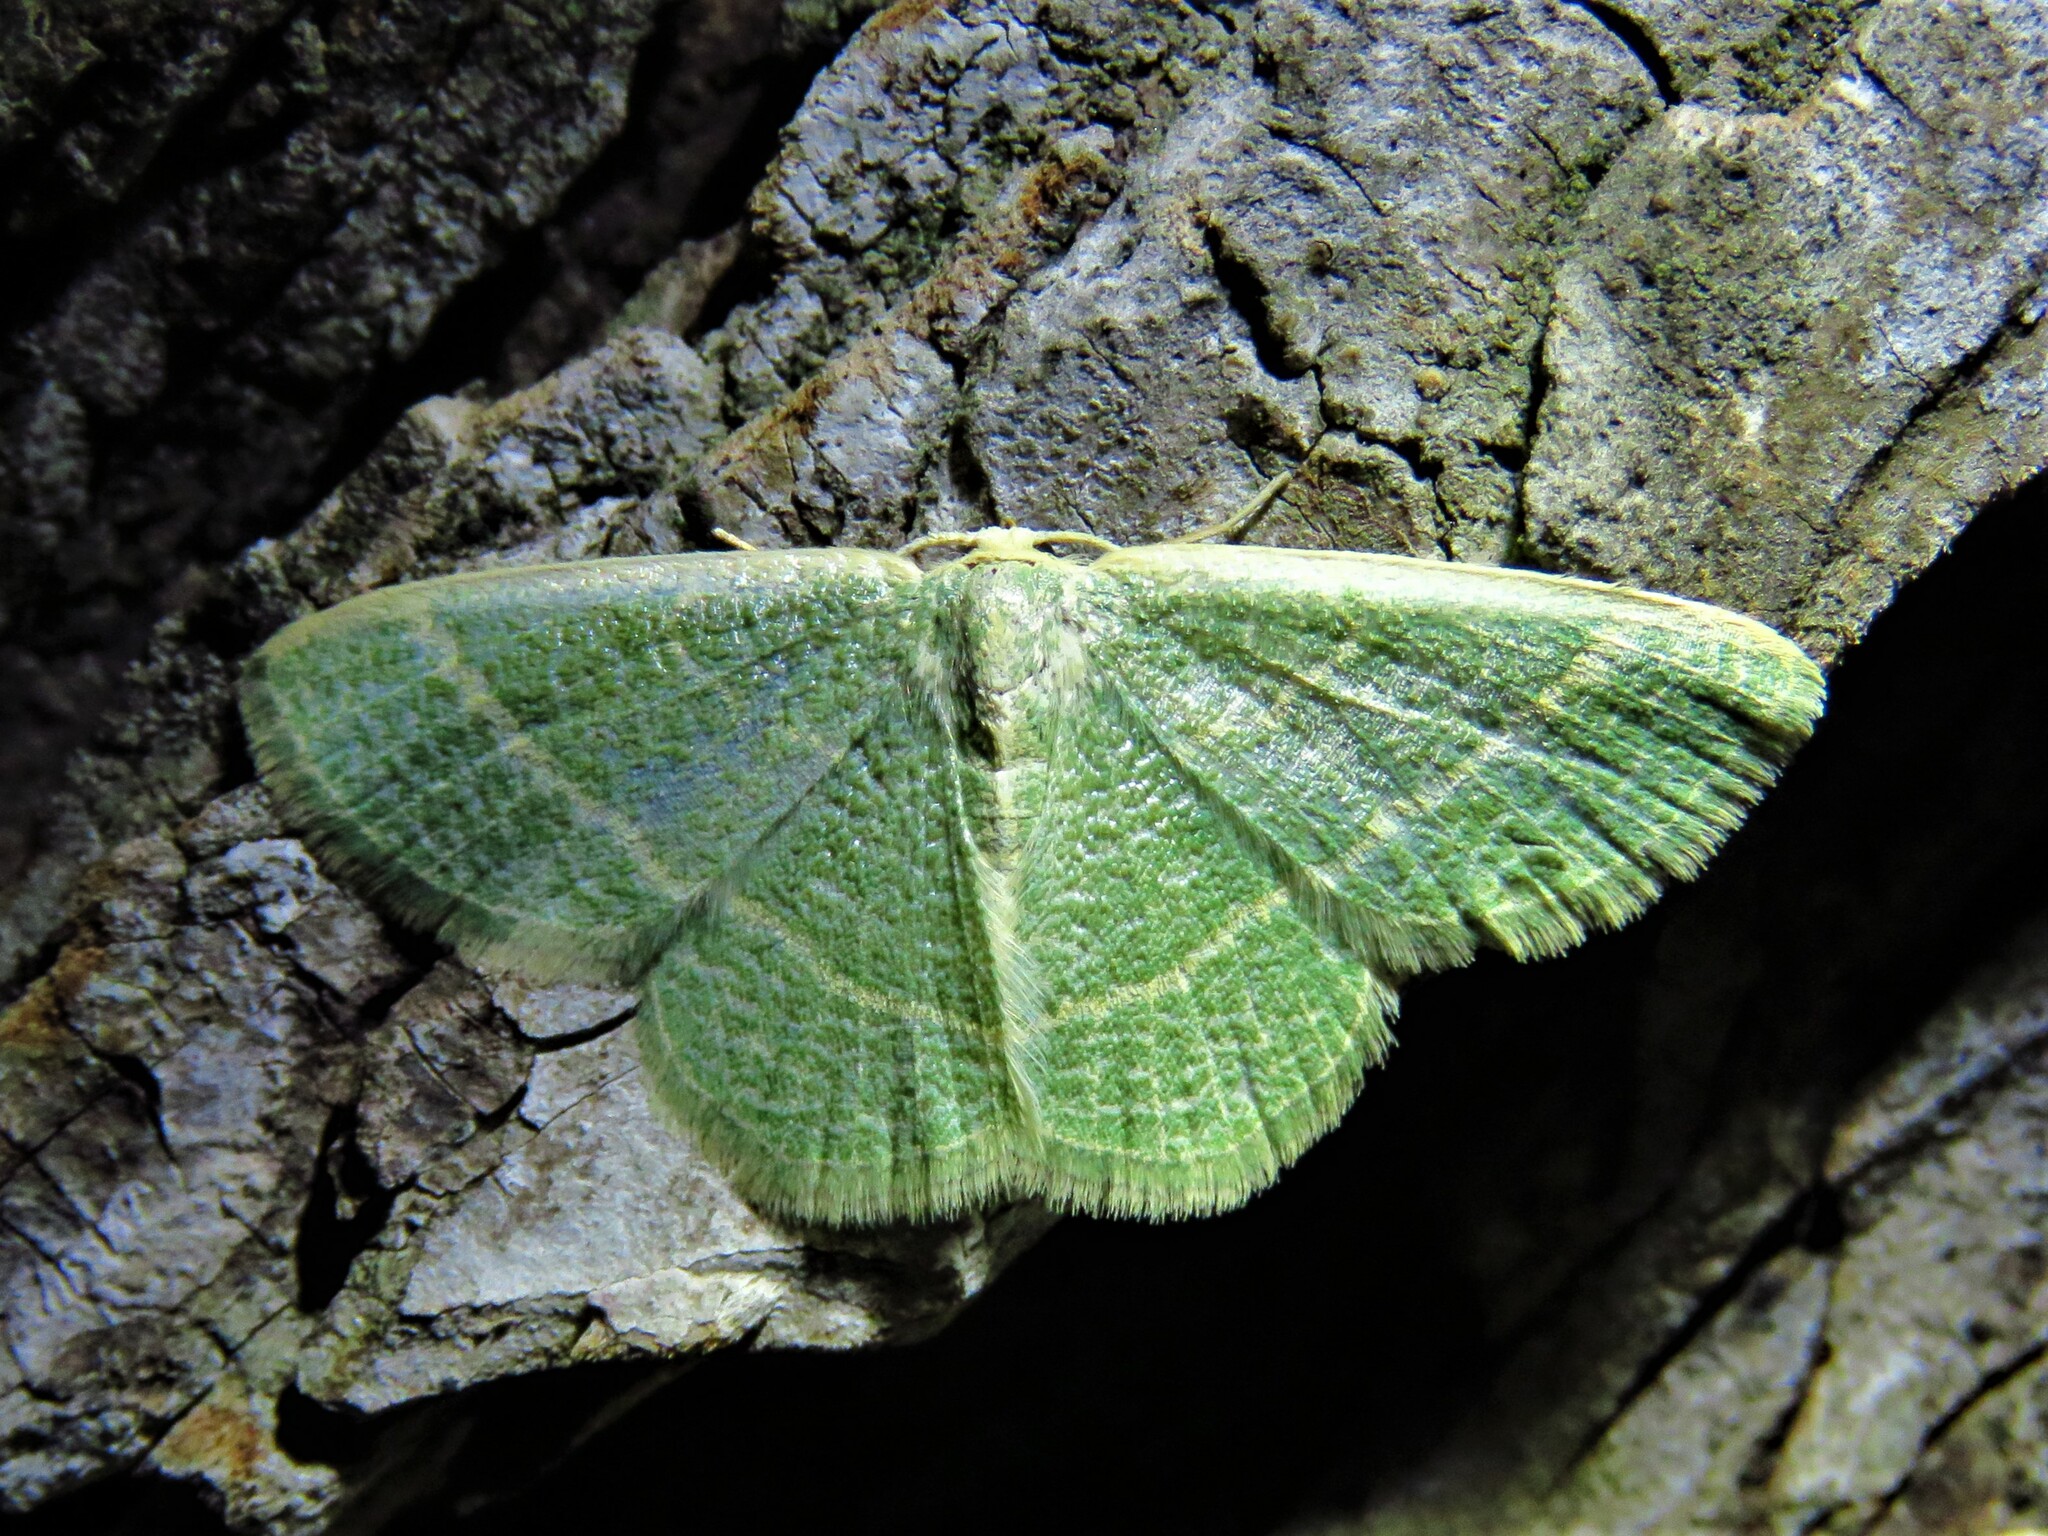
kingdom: Animalia
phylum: Arthropoda
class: Insecta
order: Lepidoptera
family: Geometridae
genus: Chlorochlamys
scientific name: Chlorochlamys chloroleucaria
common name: Blackberry looper
